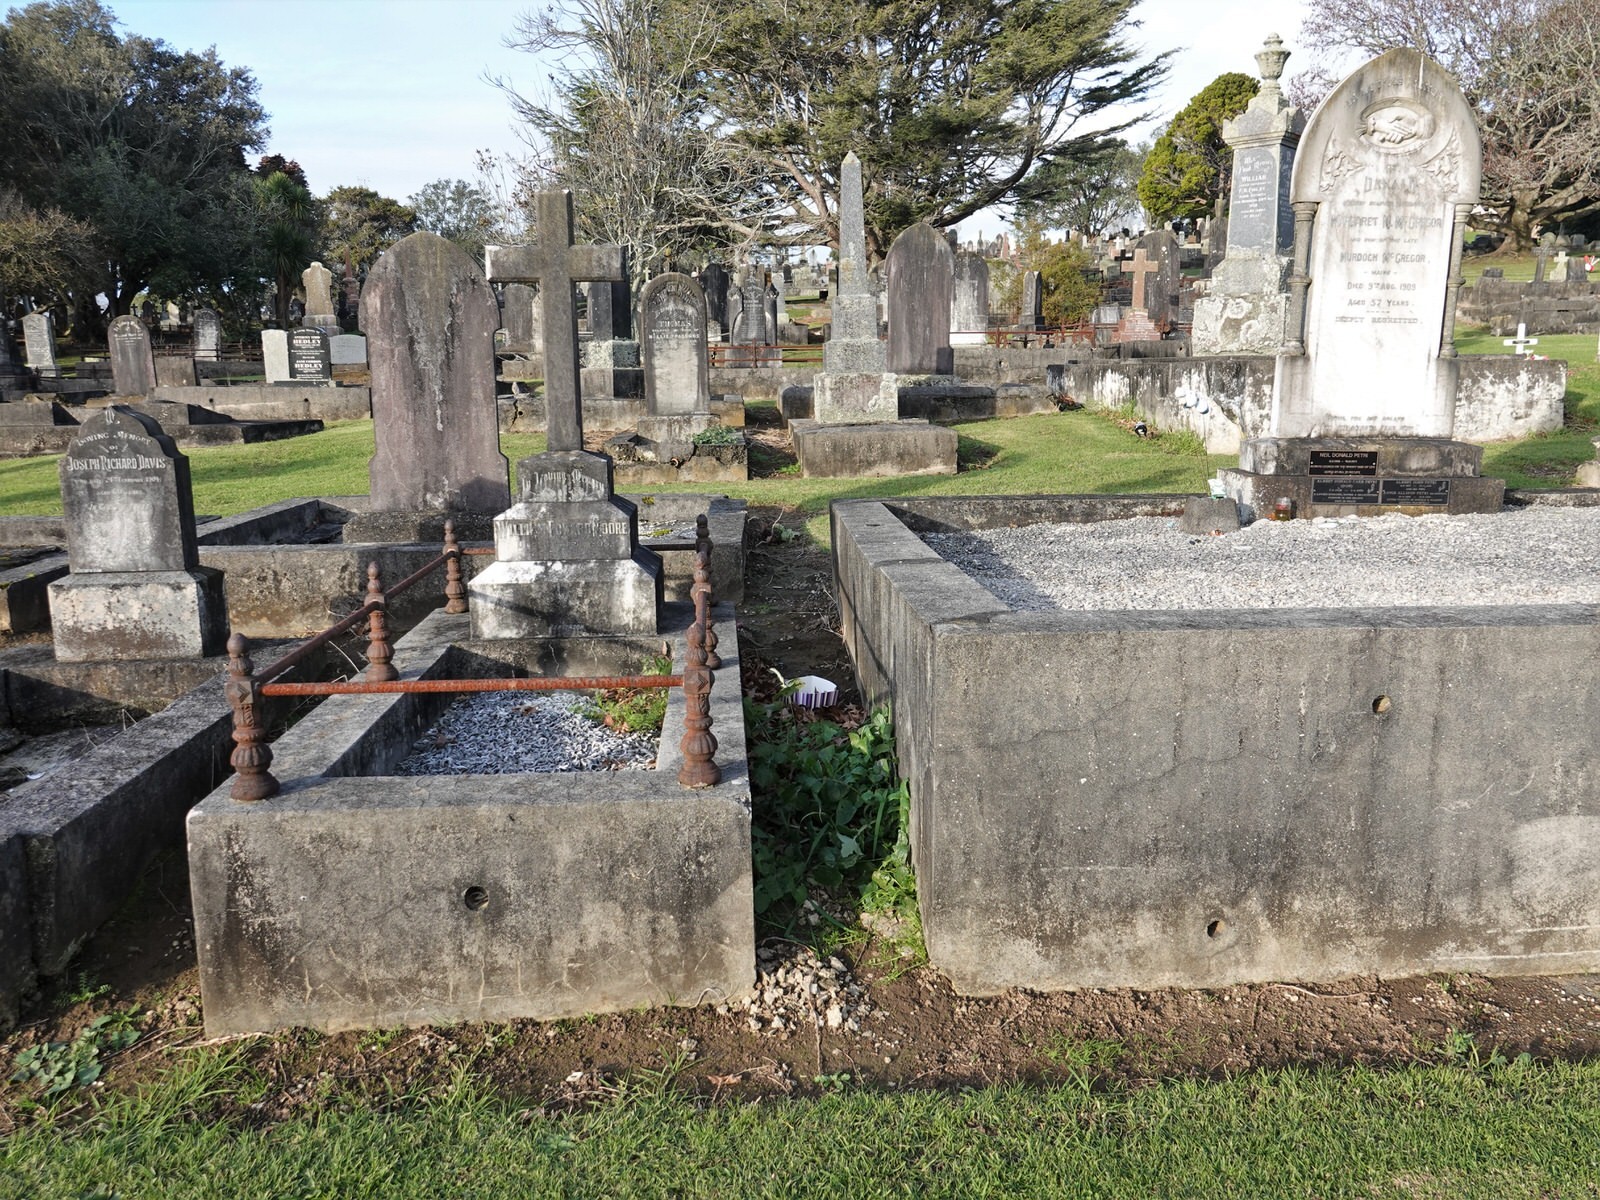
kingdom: Plantae
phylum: Tracheophyta
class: Magnoliopsida
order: Asterales
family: Asteraceae
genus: Sonchus
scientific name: Sonchus oleraceus
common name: Common sowthistle
